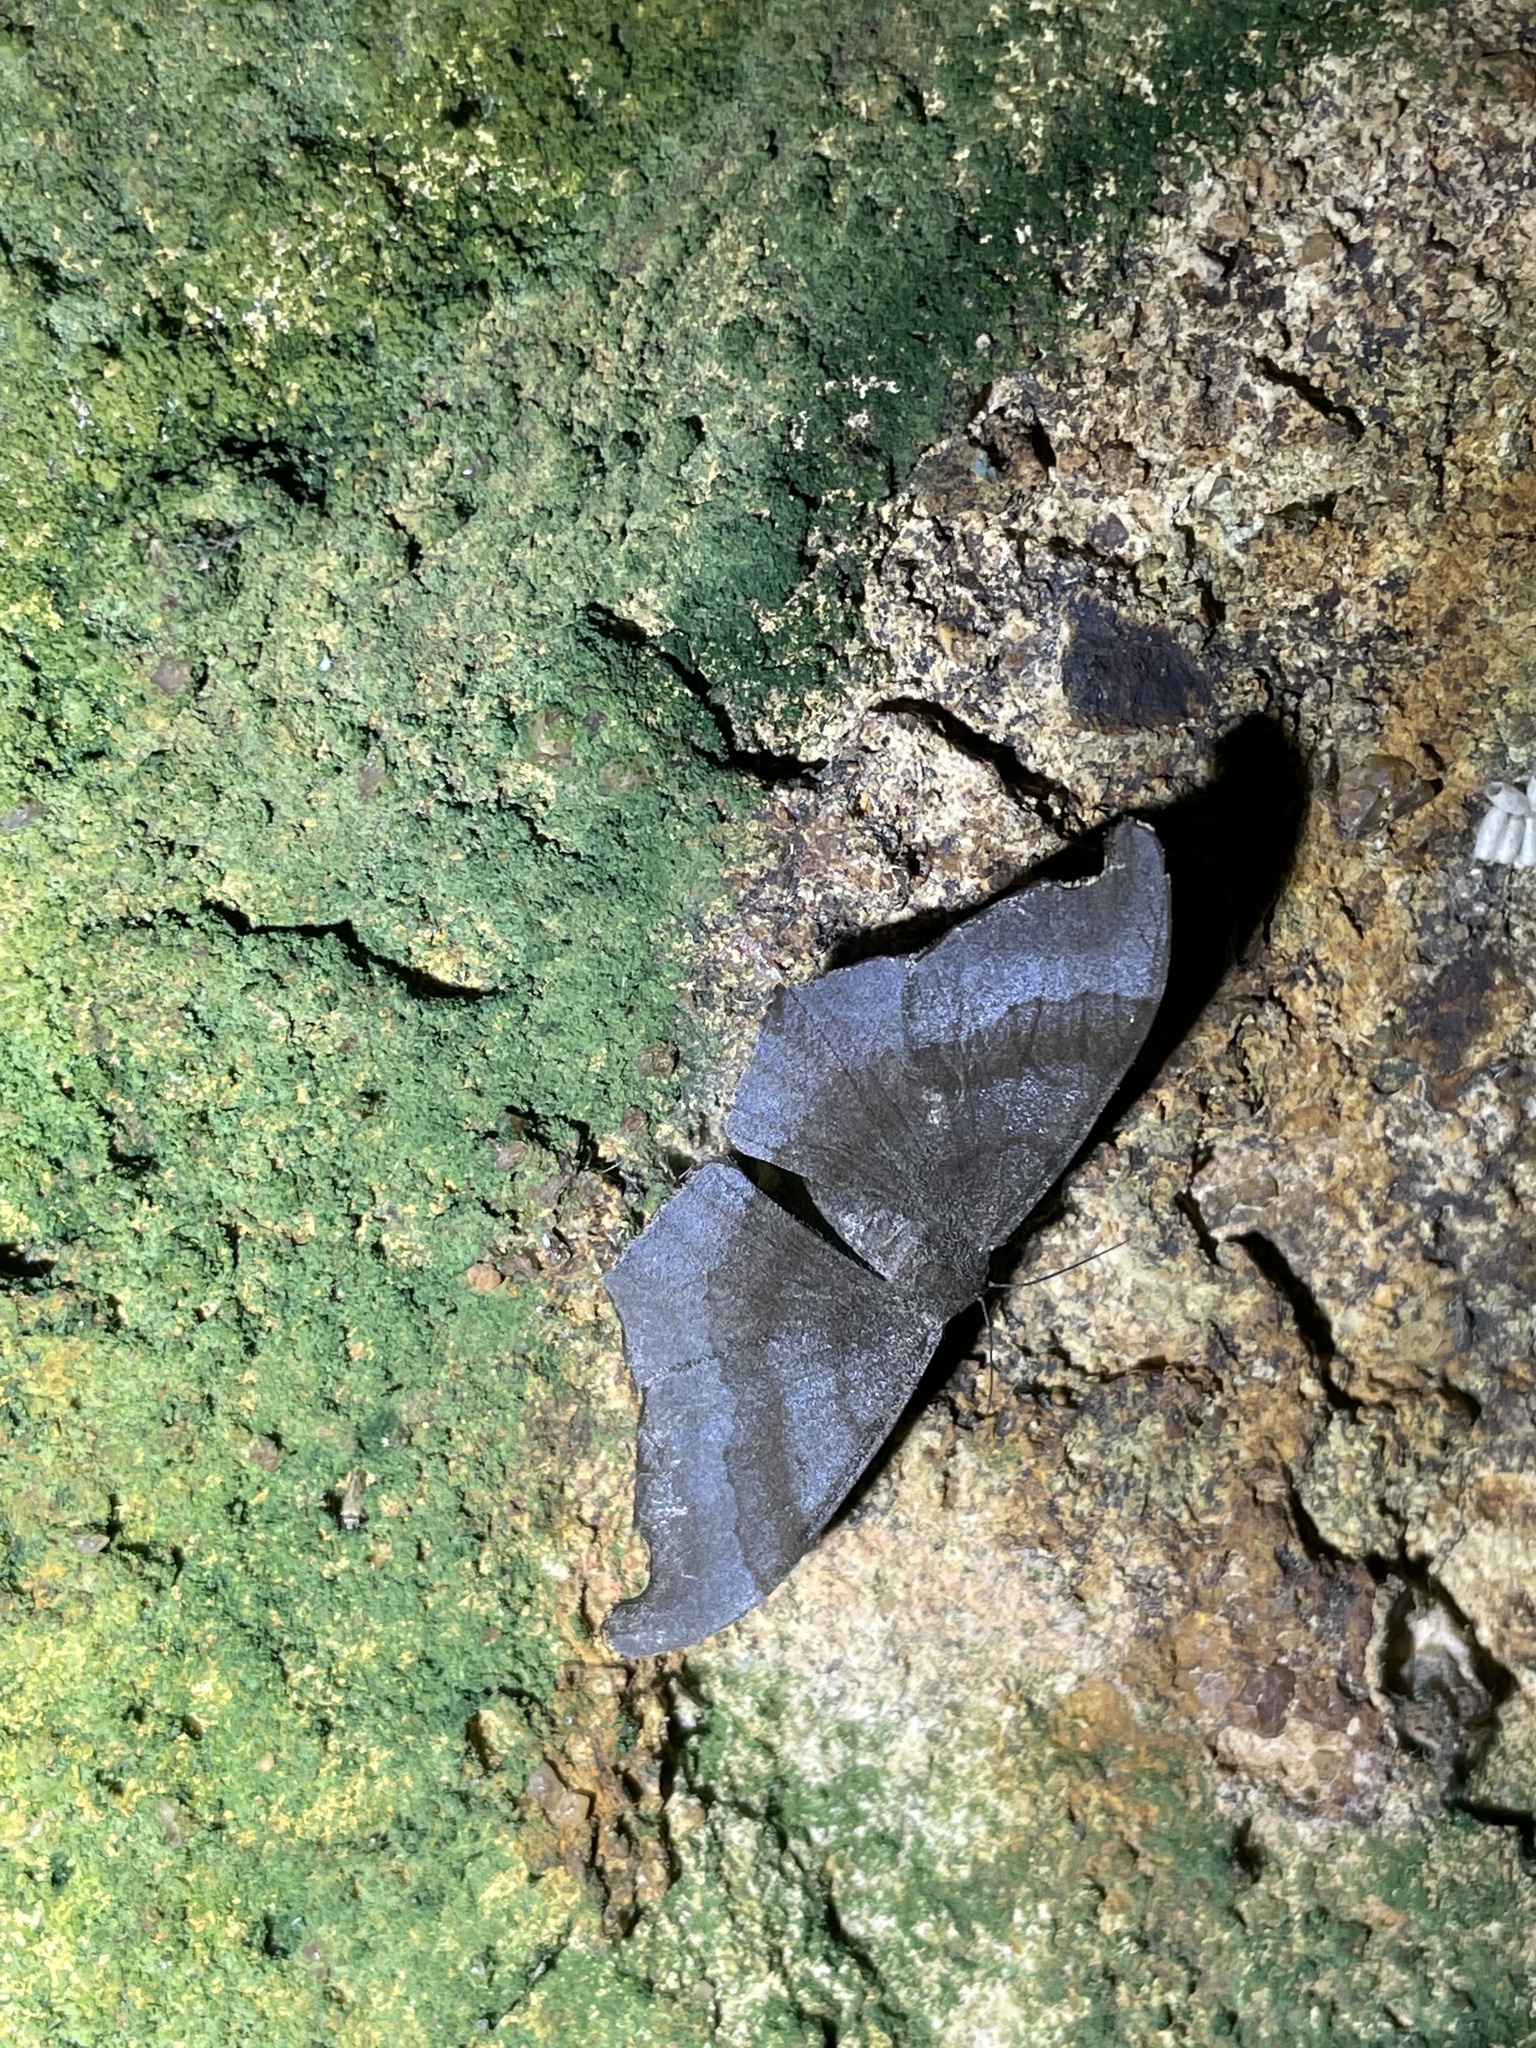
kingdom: Animalia
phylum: Arthropoda
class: Insecta
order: Lepidoptera
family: Geometridae
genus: Hyposidra
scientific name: Hyposidra talaca
